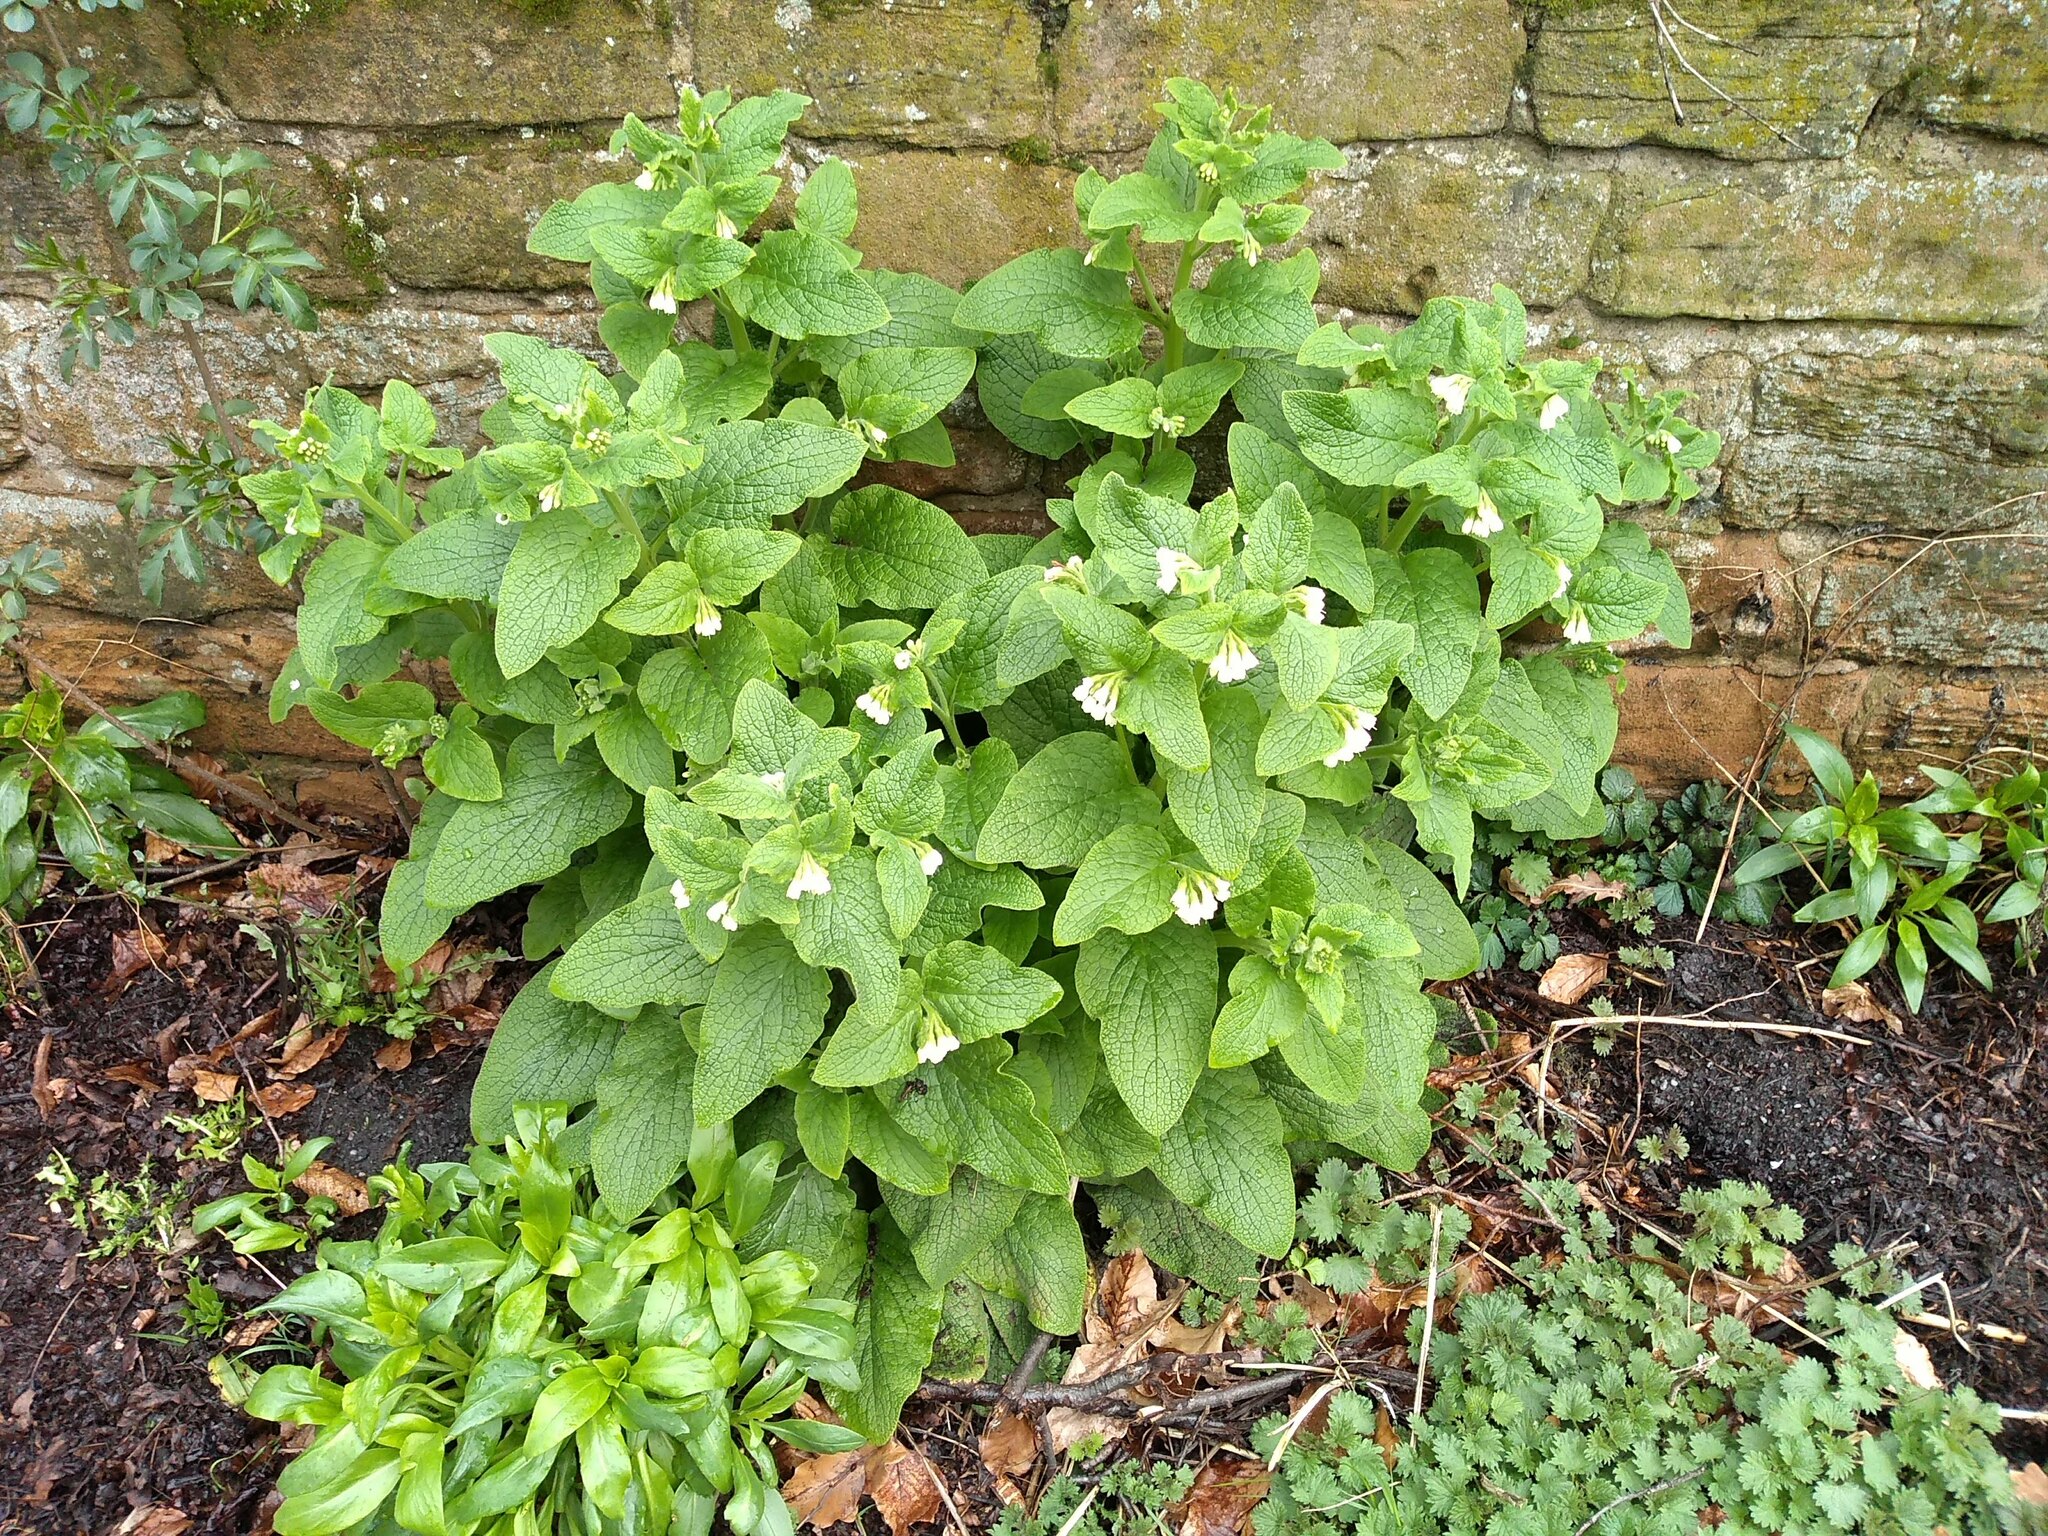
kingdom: Plantae
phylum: Tracheophyta
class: Magnoliopsida
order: Boraginales
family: Boraginaceae
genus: Symphytum
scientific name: Symphytum orientale
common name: White comfrey
